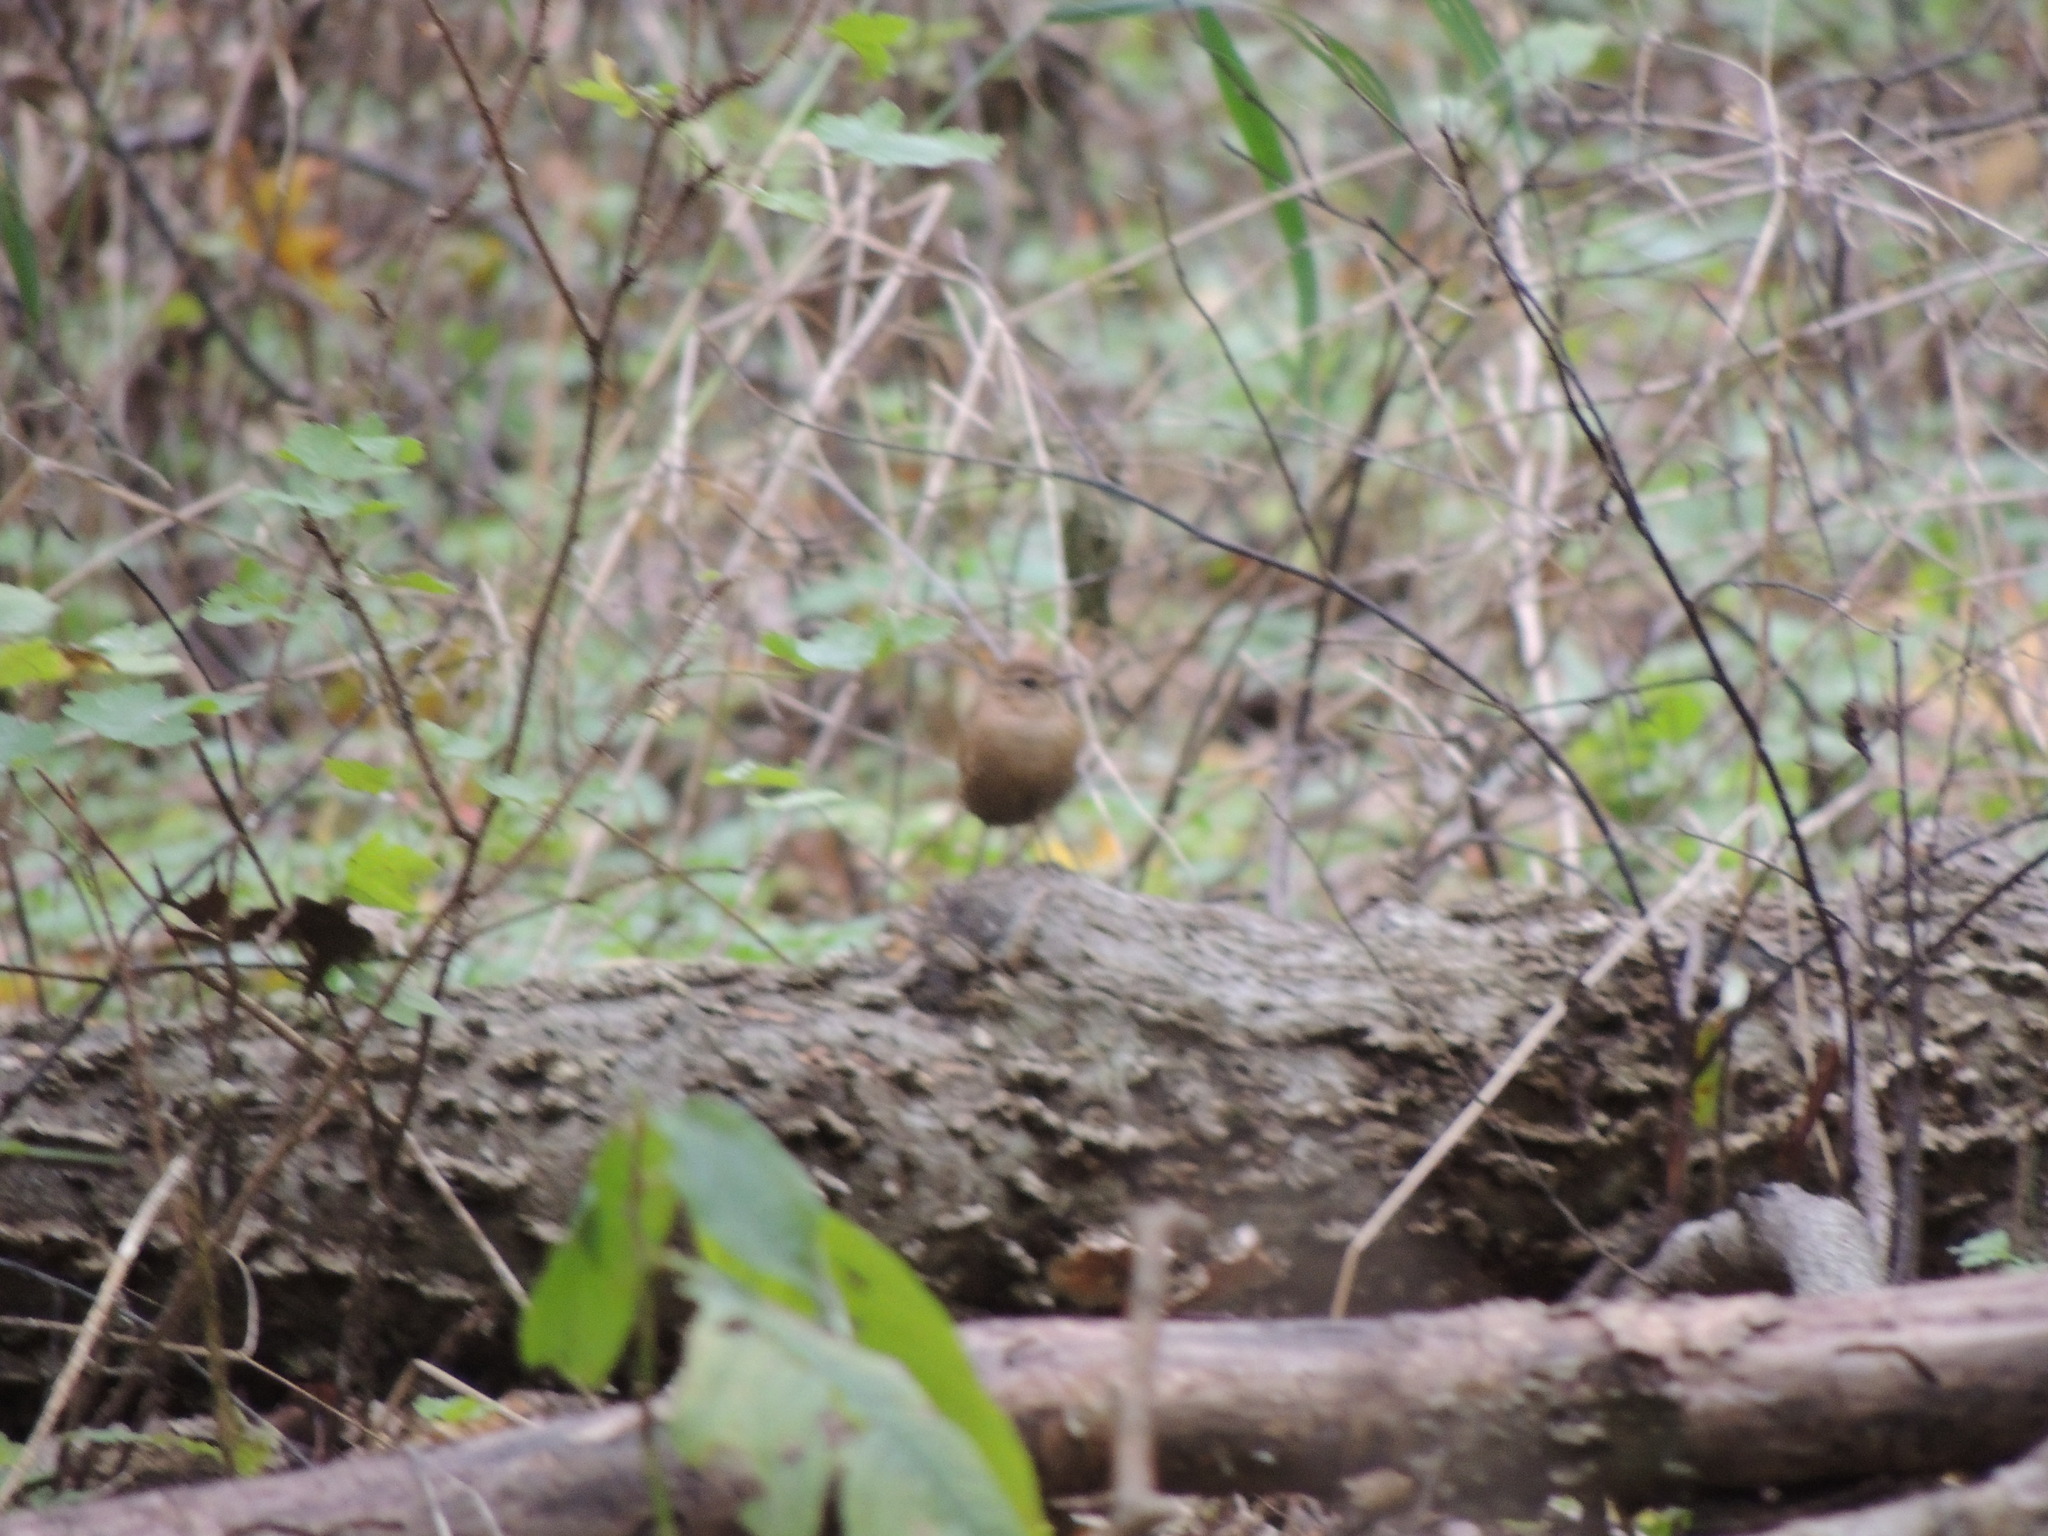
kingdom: Animalia
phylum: Chordata
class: Aves
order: Passeriformes
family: Troglodytidae
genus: Troglodytes
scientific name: Troglodytes hiemalis
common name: Winter wren
